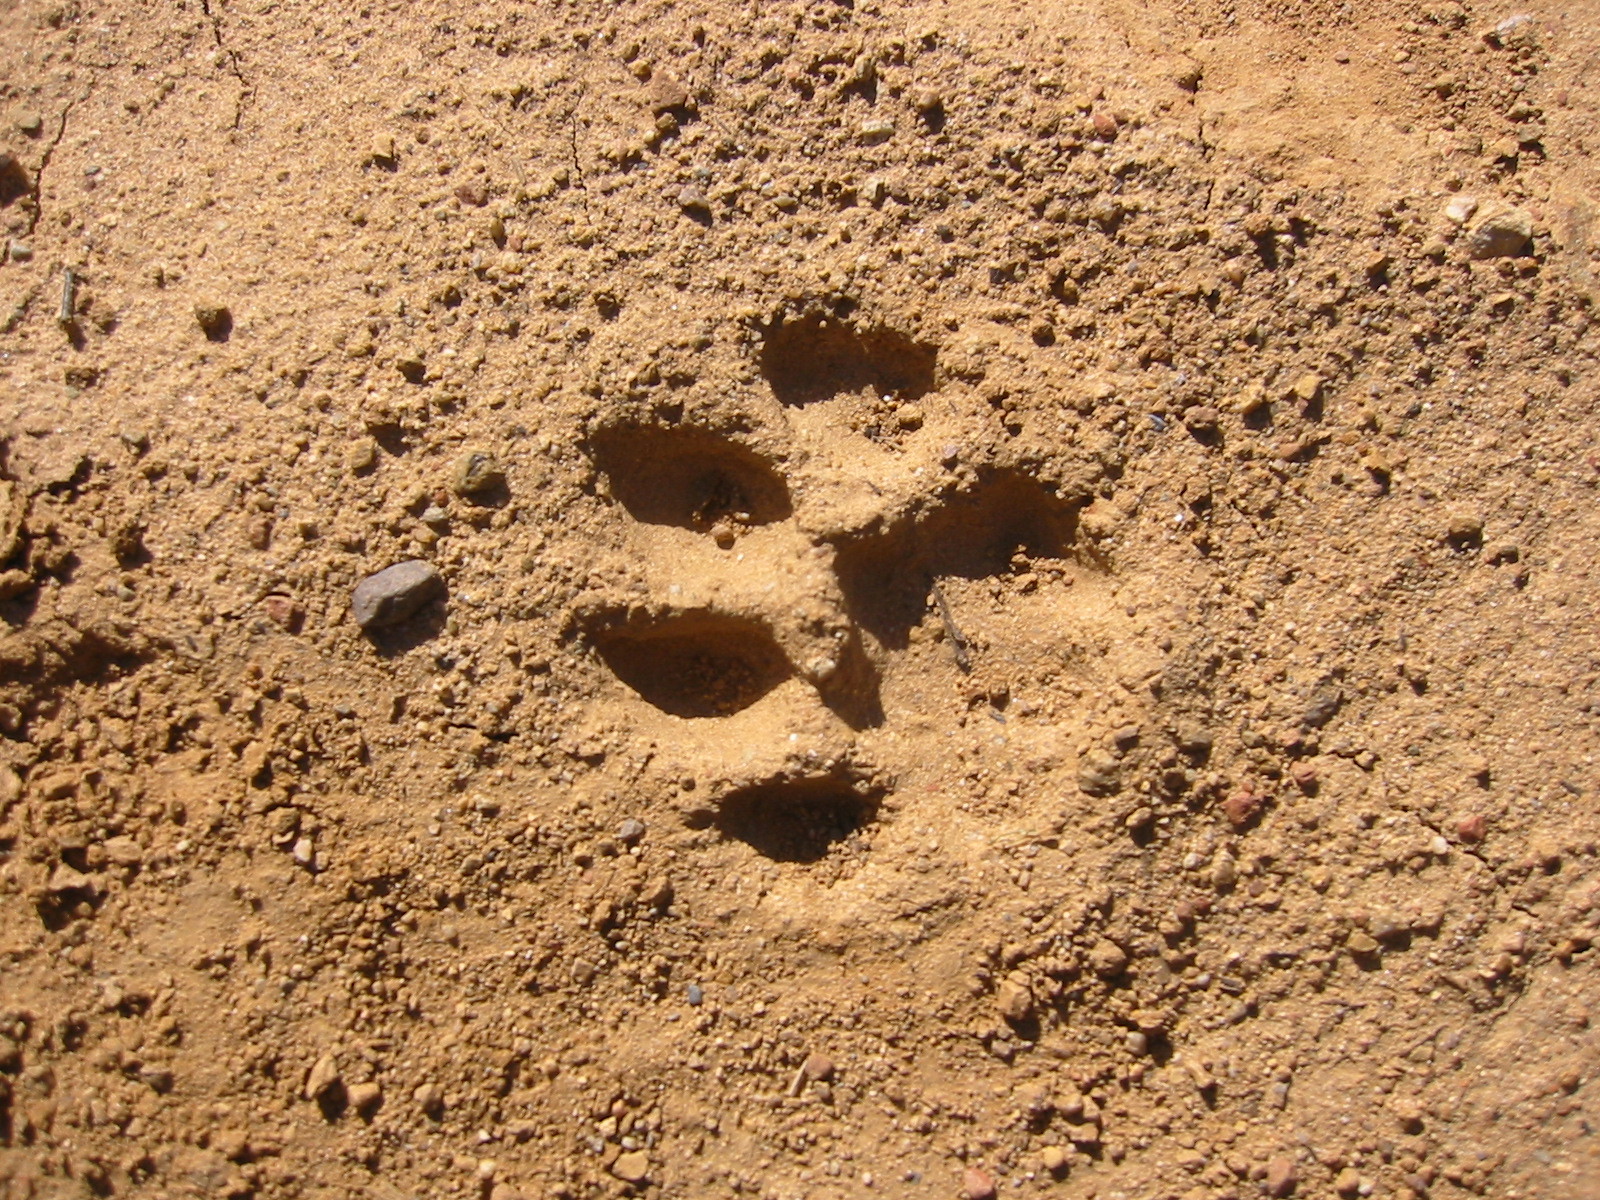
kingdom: Animalia
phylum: Chordata
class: Mammalia
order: Carnivora
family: Felidae
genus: Puma
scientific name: Puma concolor
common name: Puma
